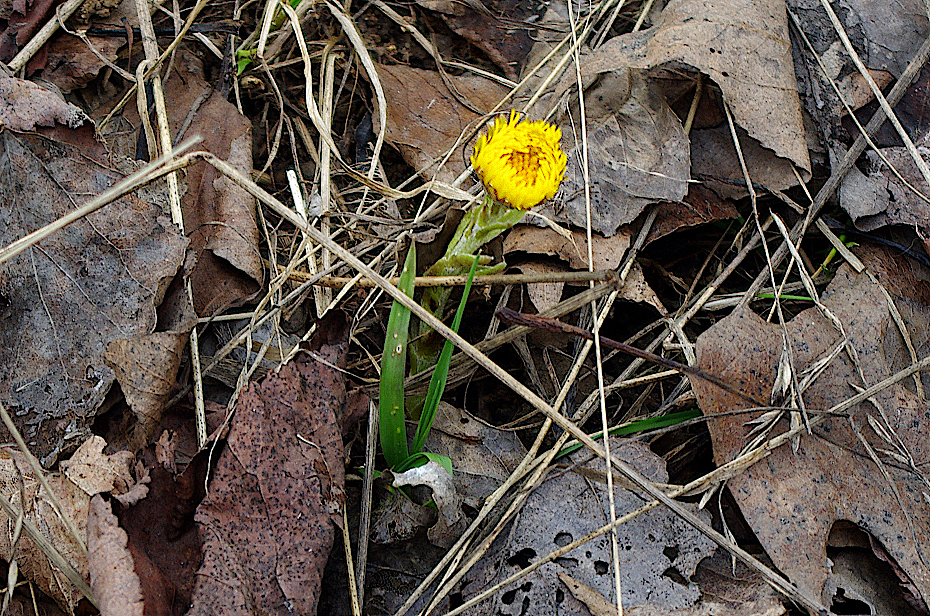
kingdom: Plantae
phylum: Tracheophyta
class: Magnoliopsida
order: Asterales
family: Asteraceae
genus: Tussilago
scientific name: Tussilago farfara
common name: Coltsfoot
